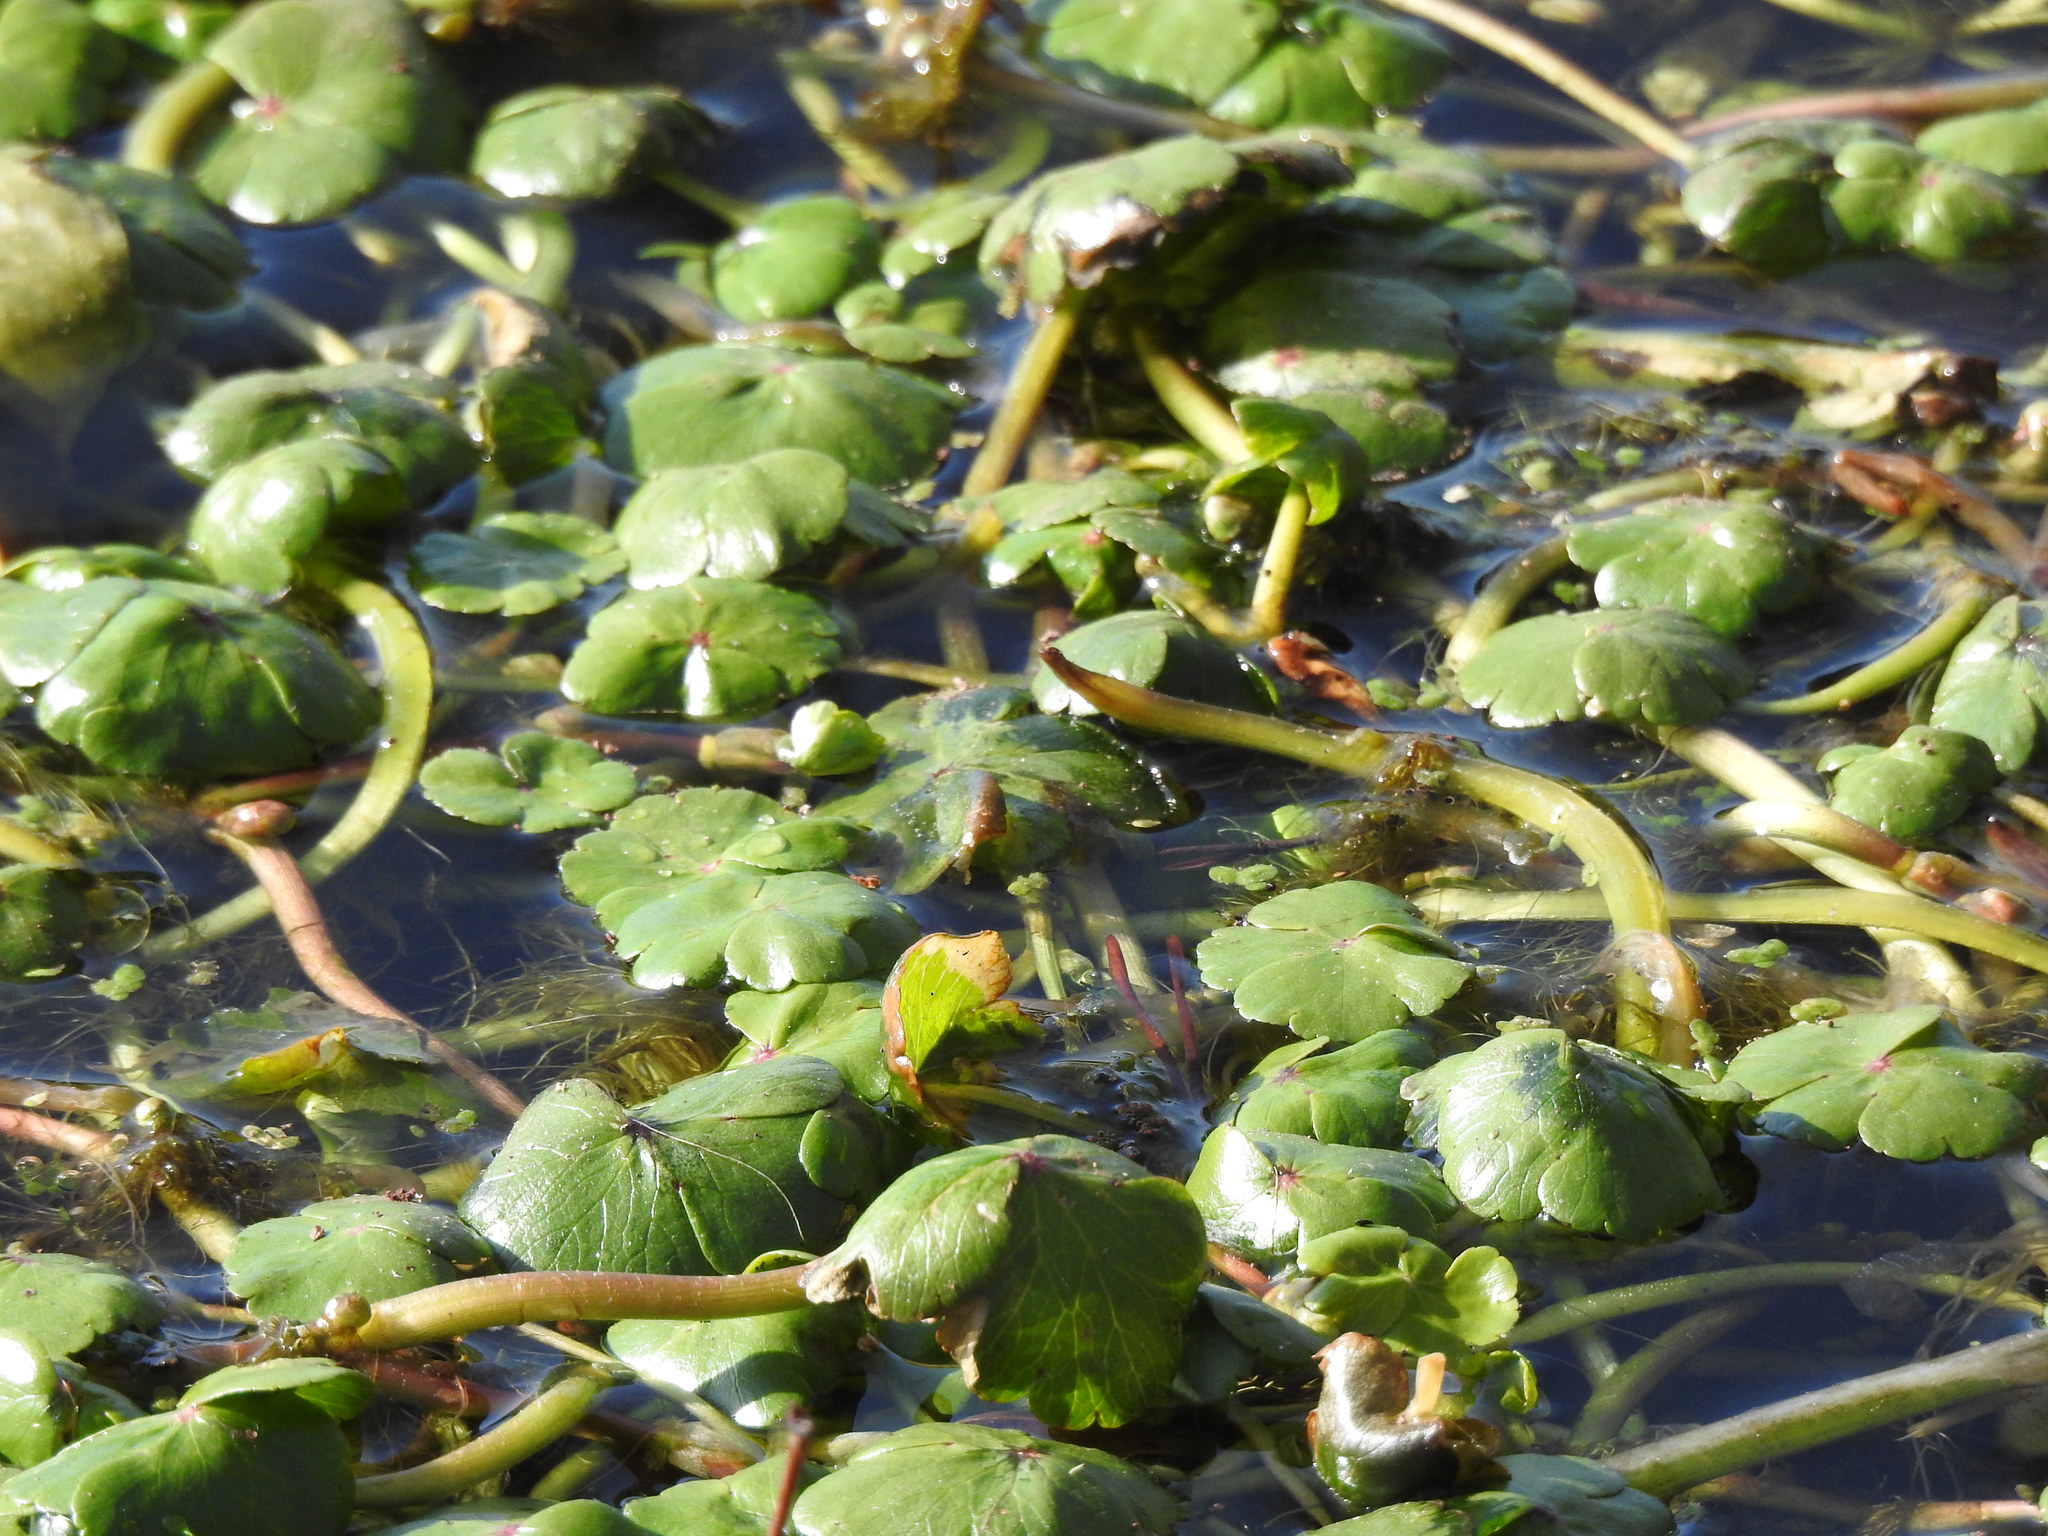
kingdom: Plantae
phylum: Tracheophyta
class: Magnoliopsida
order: Apiales
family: Araliaceae
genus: Hydrocotyle
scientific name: Hydrocotyle ranunculoides
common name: Floating pennywort
